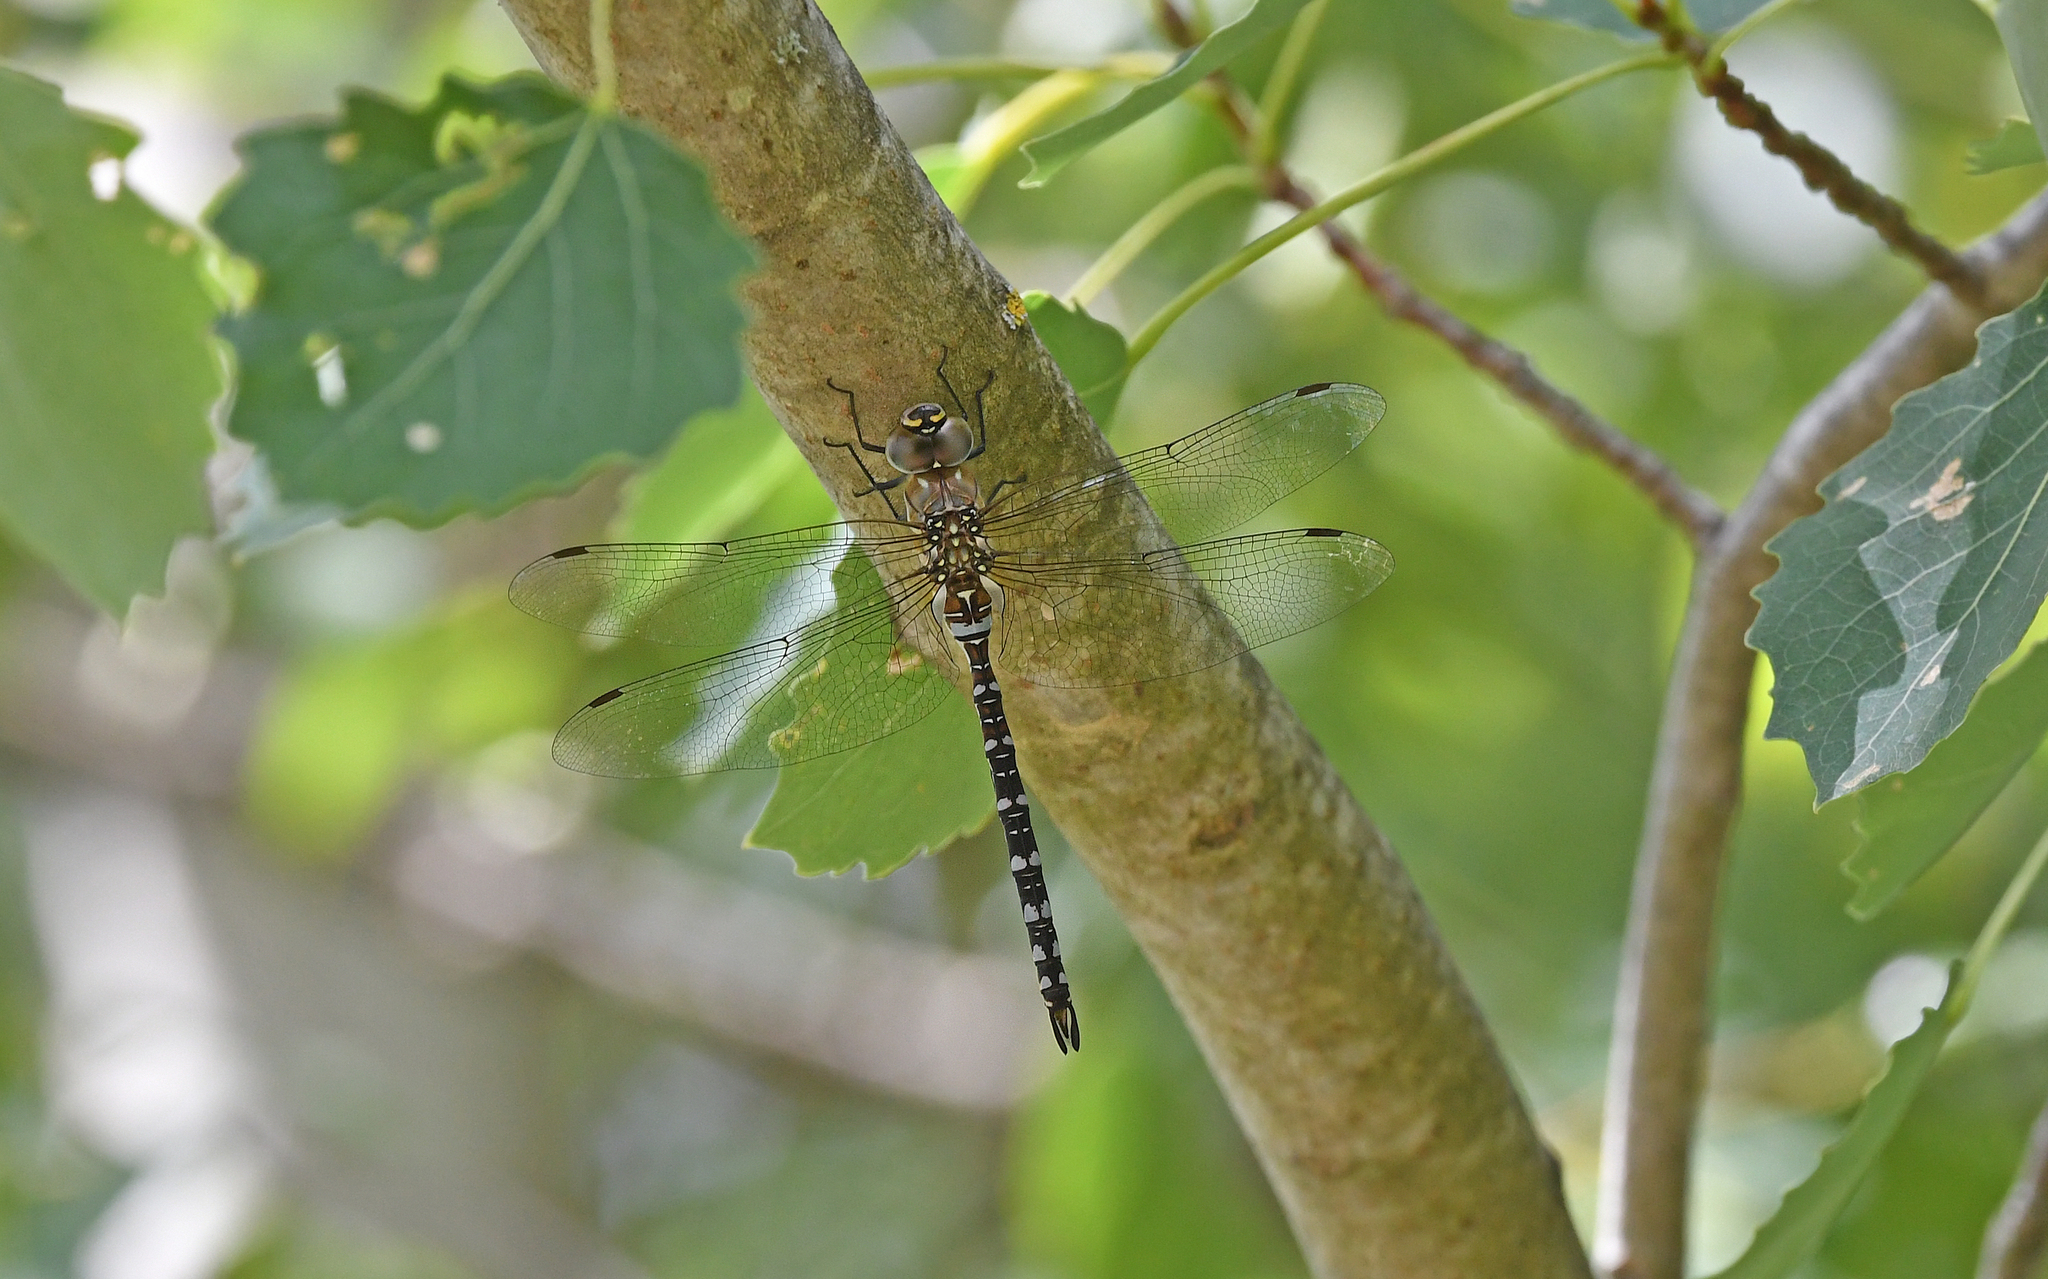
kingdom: Animalia
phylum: Arthropoda
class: Insecta
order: Odonata
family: Aeshnidae
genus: Aeshna
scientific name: Aeshna mixta
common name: Migrant hawker
